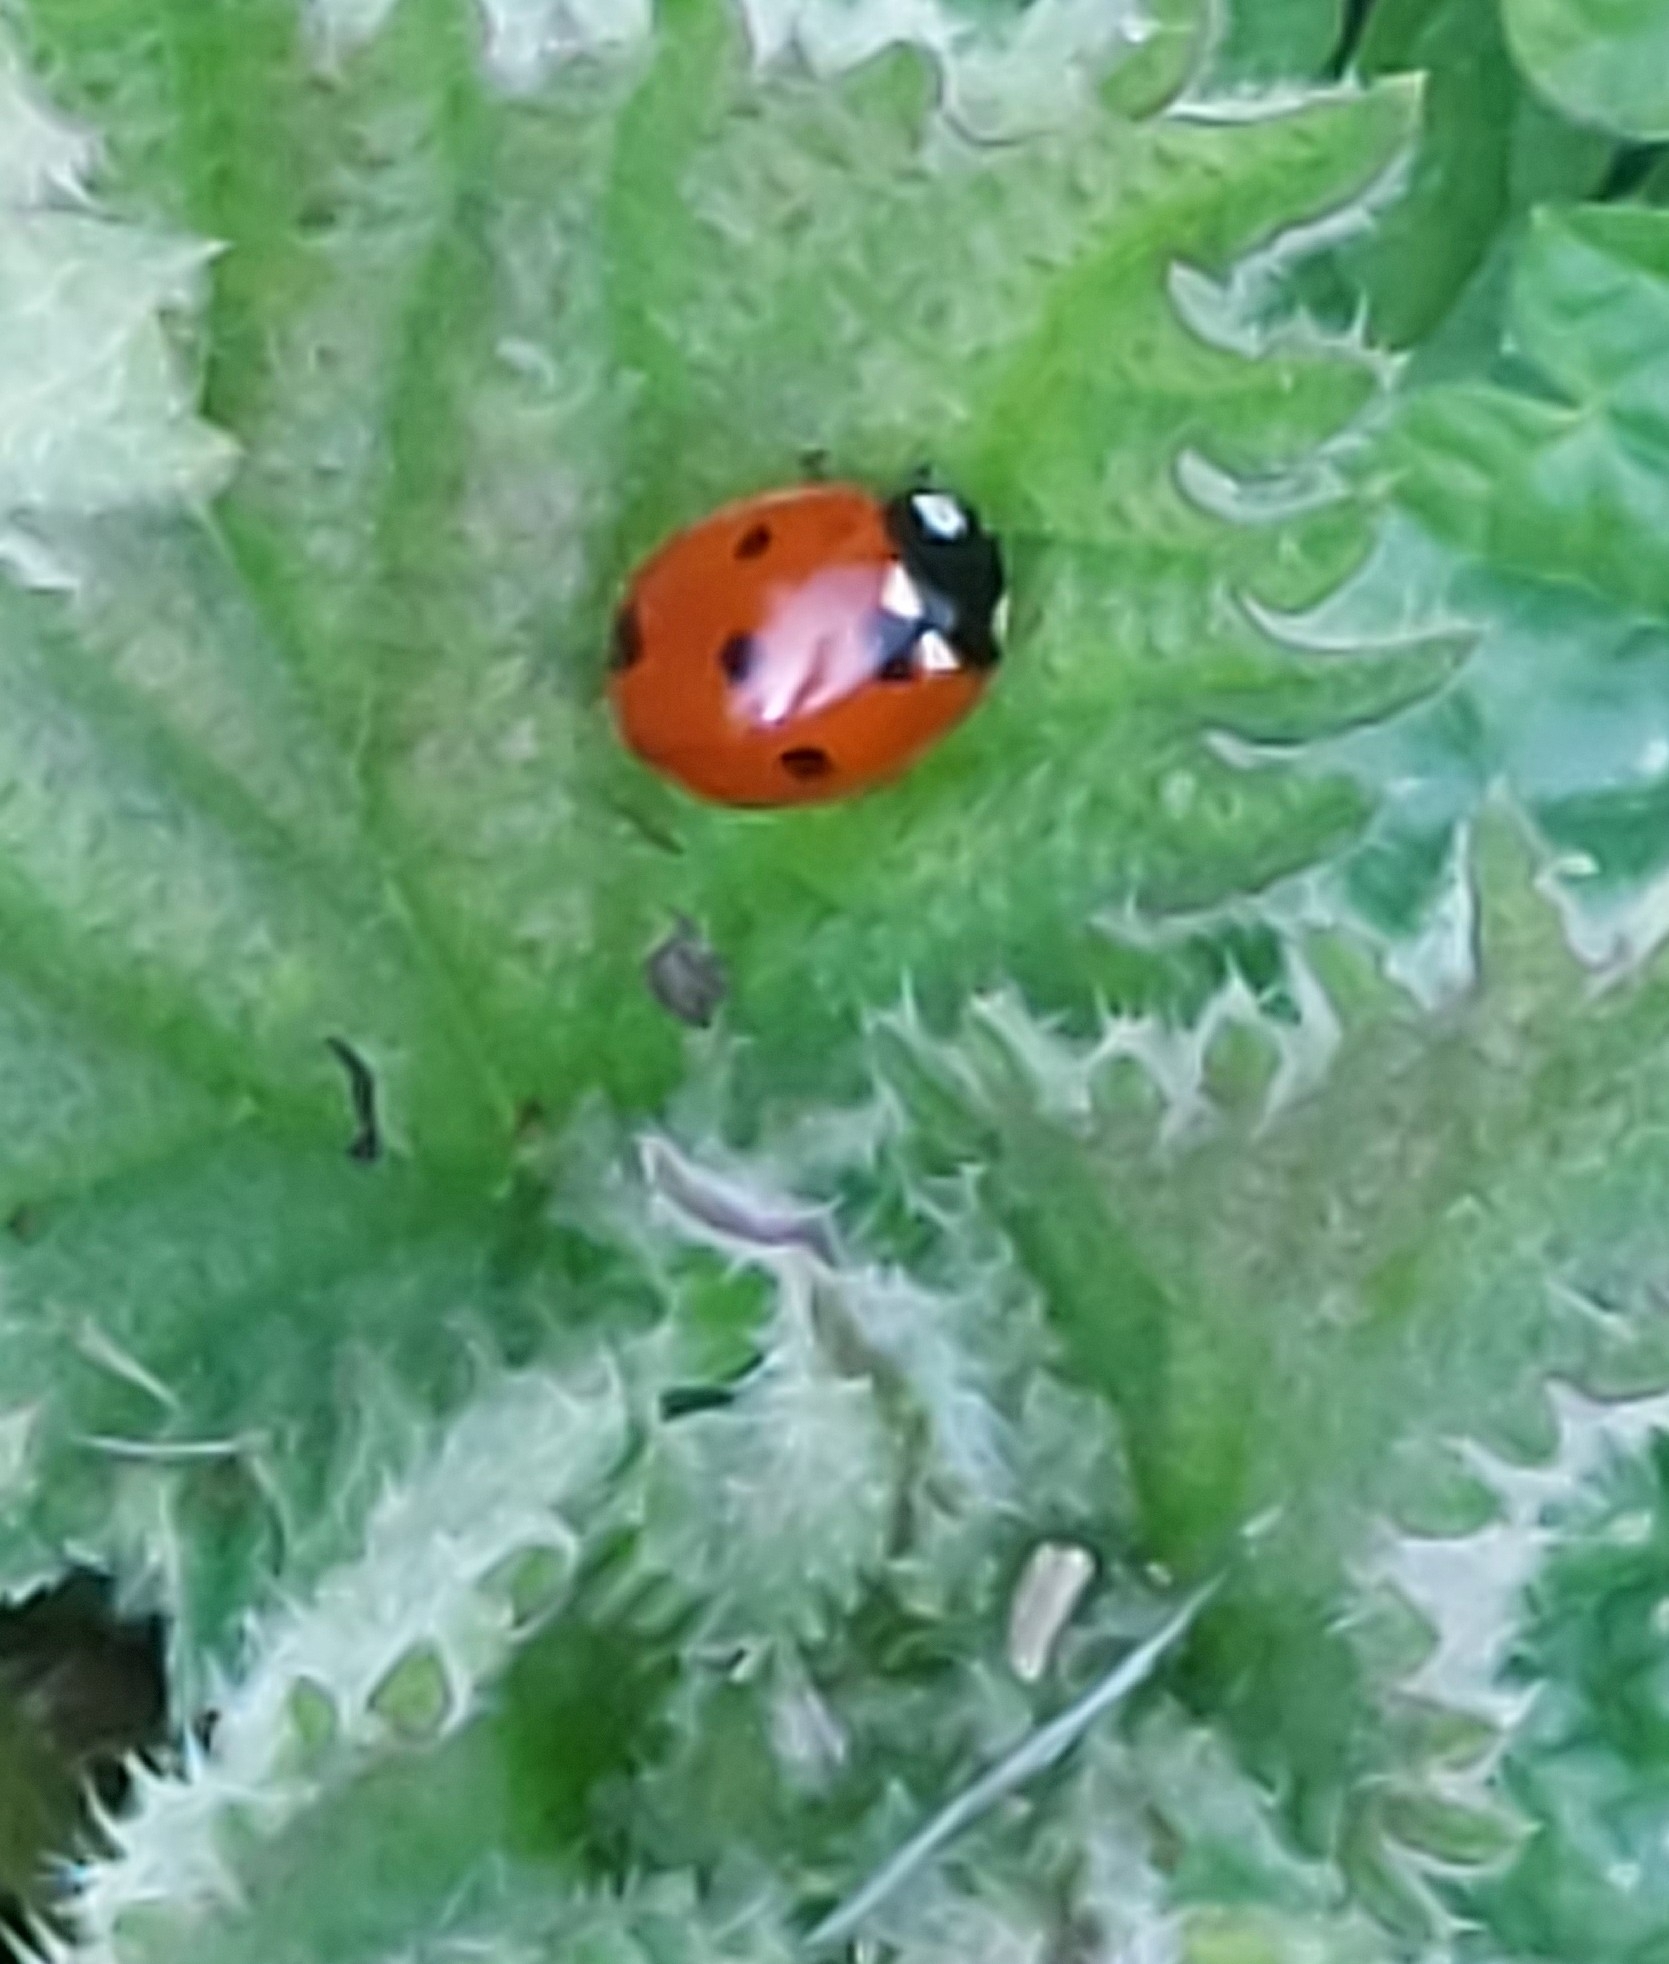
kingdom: Animalia
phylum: Arthropoda
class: Insecta
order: Coleoptera
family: Coccinellidae
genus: Coccinella
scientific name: Coccinella septempunctata
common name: Sevenspotted lady beetle
